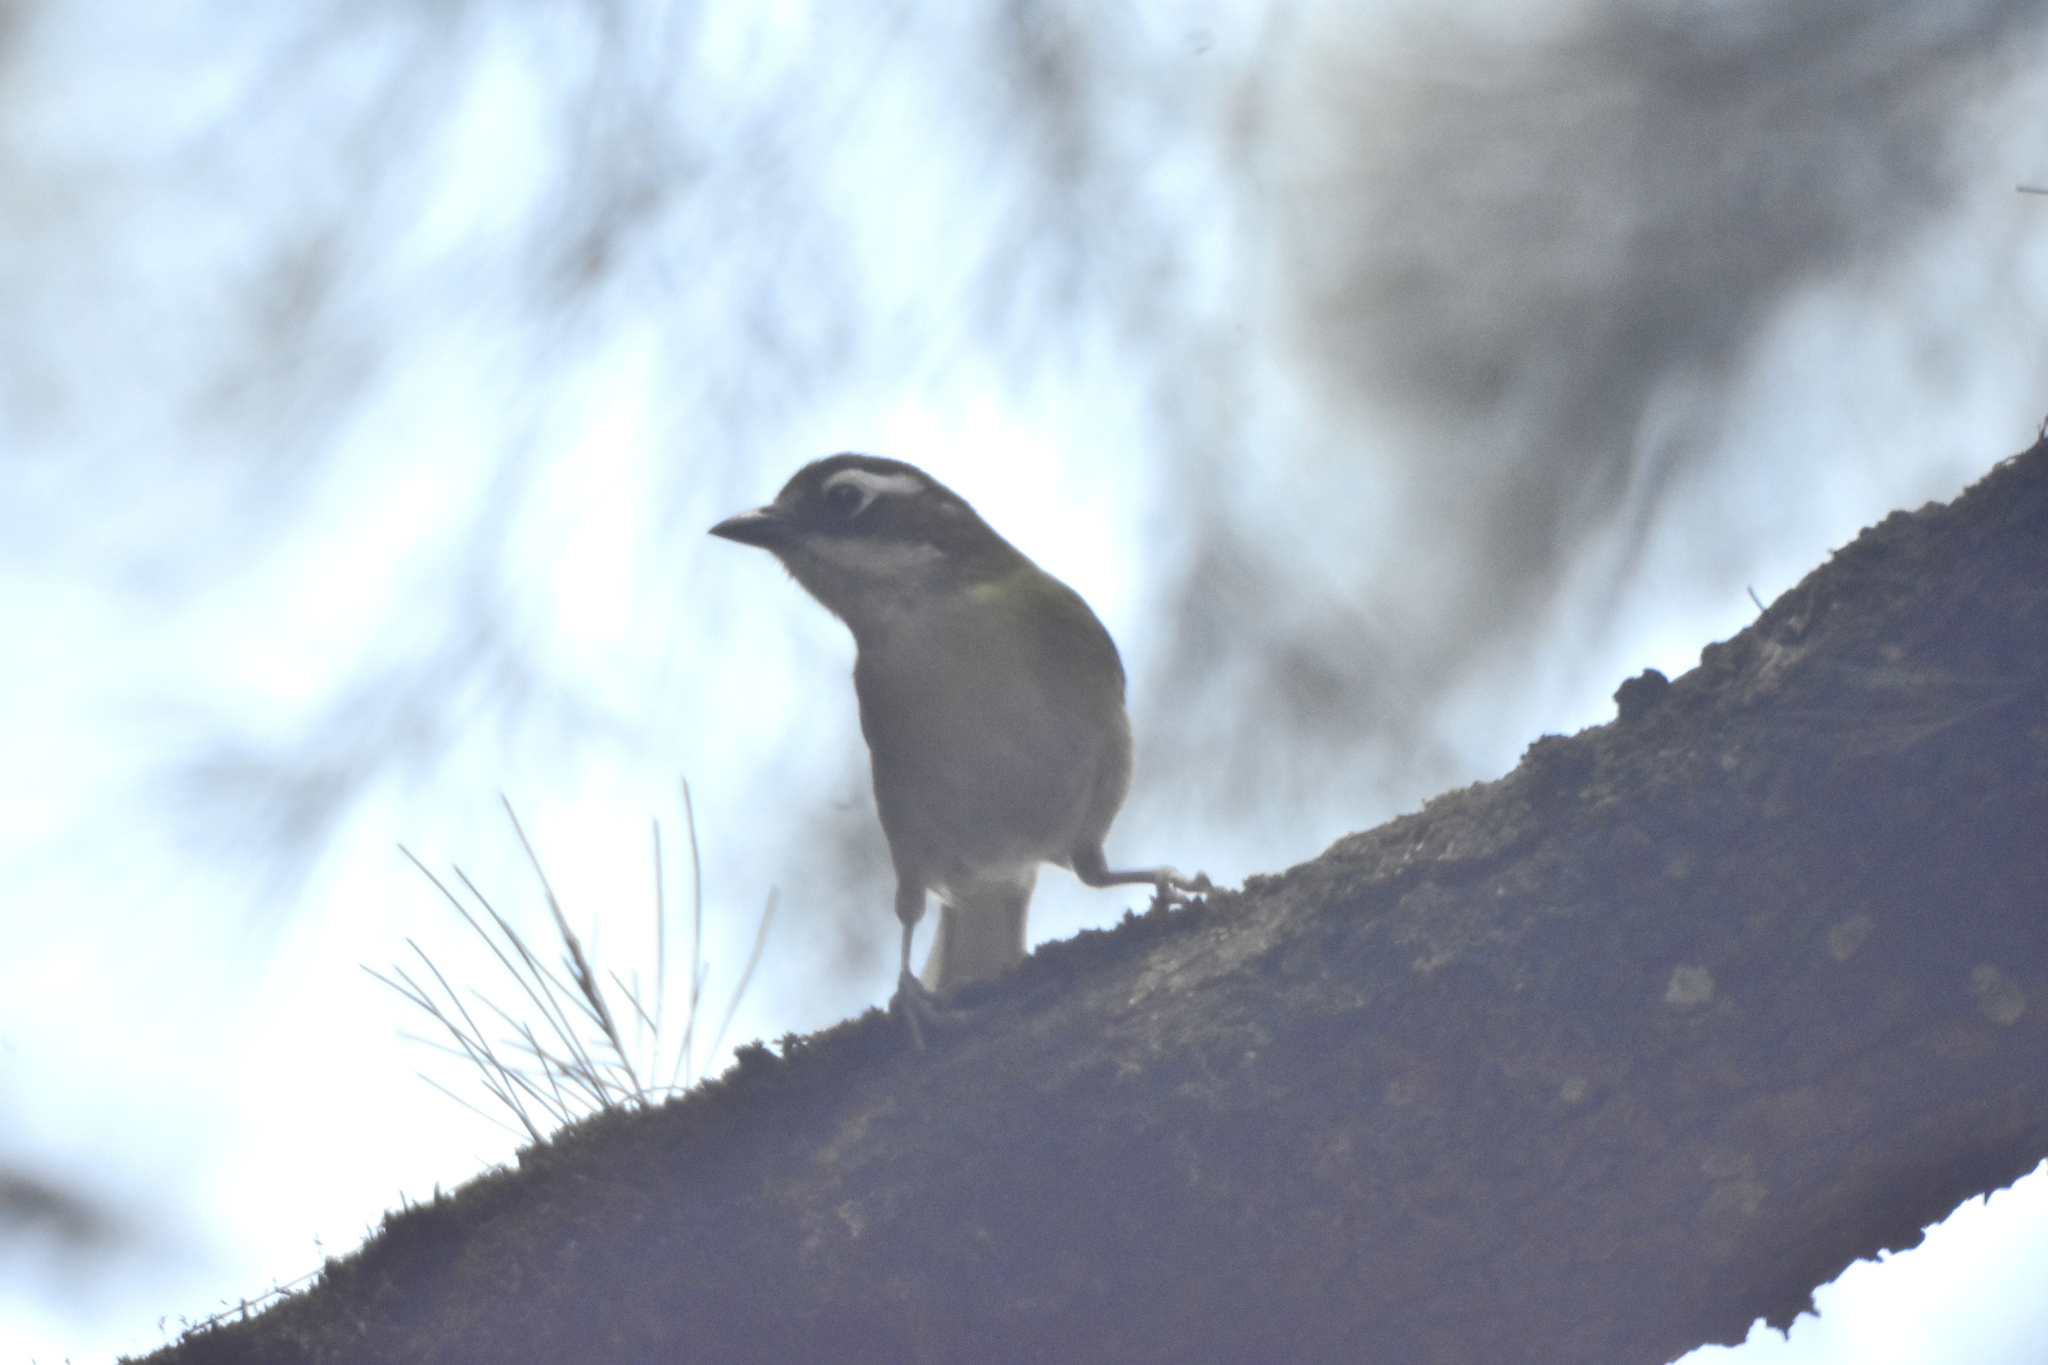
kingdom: Animalia
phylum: Chordata
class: Aves
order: Passeriformes
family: Passerellidae
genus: Chlorospingus
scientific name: Chlorospingus flavopectus
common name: Common chlorospingus
